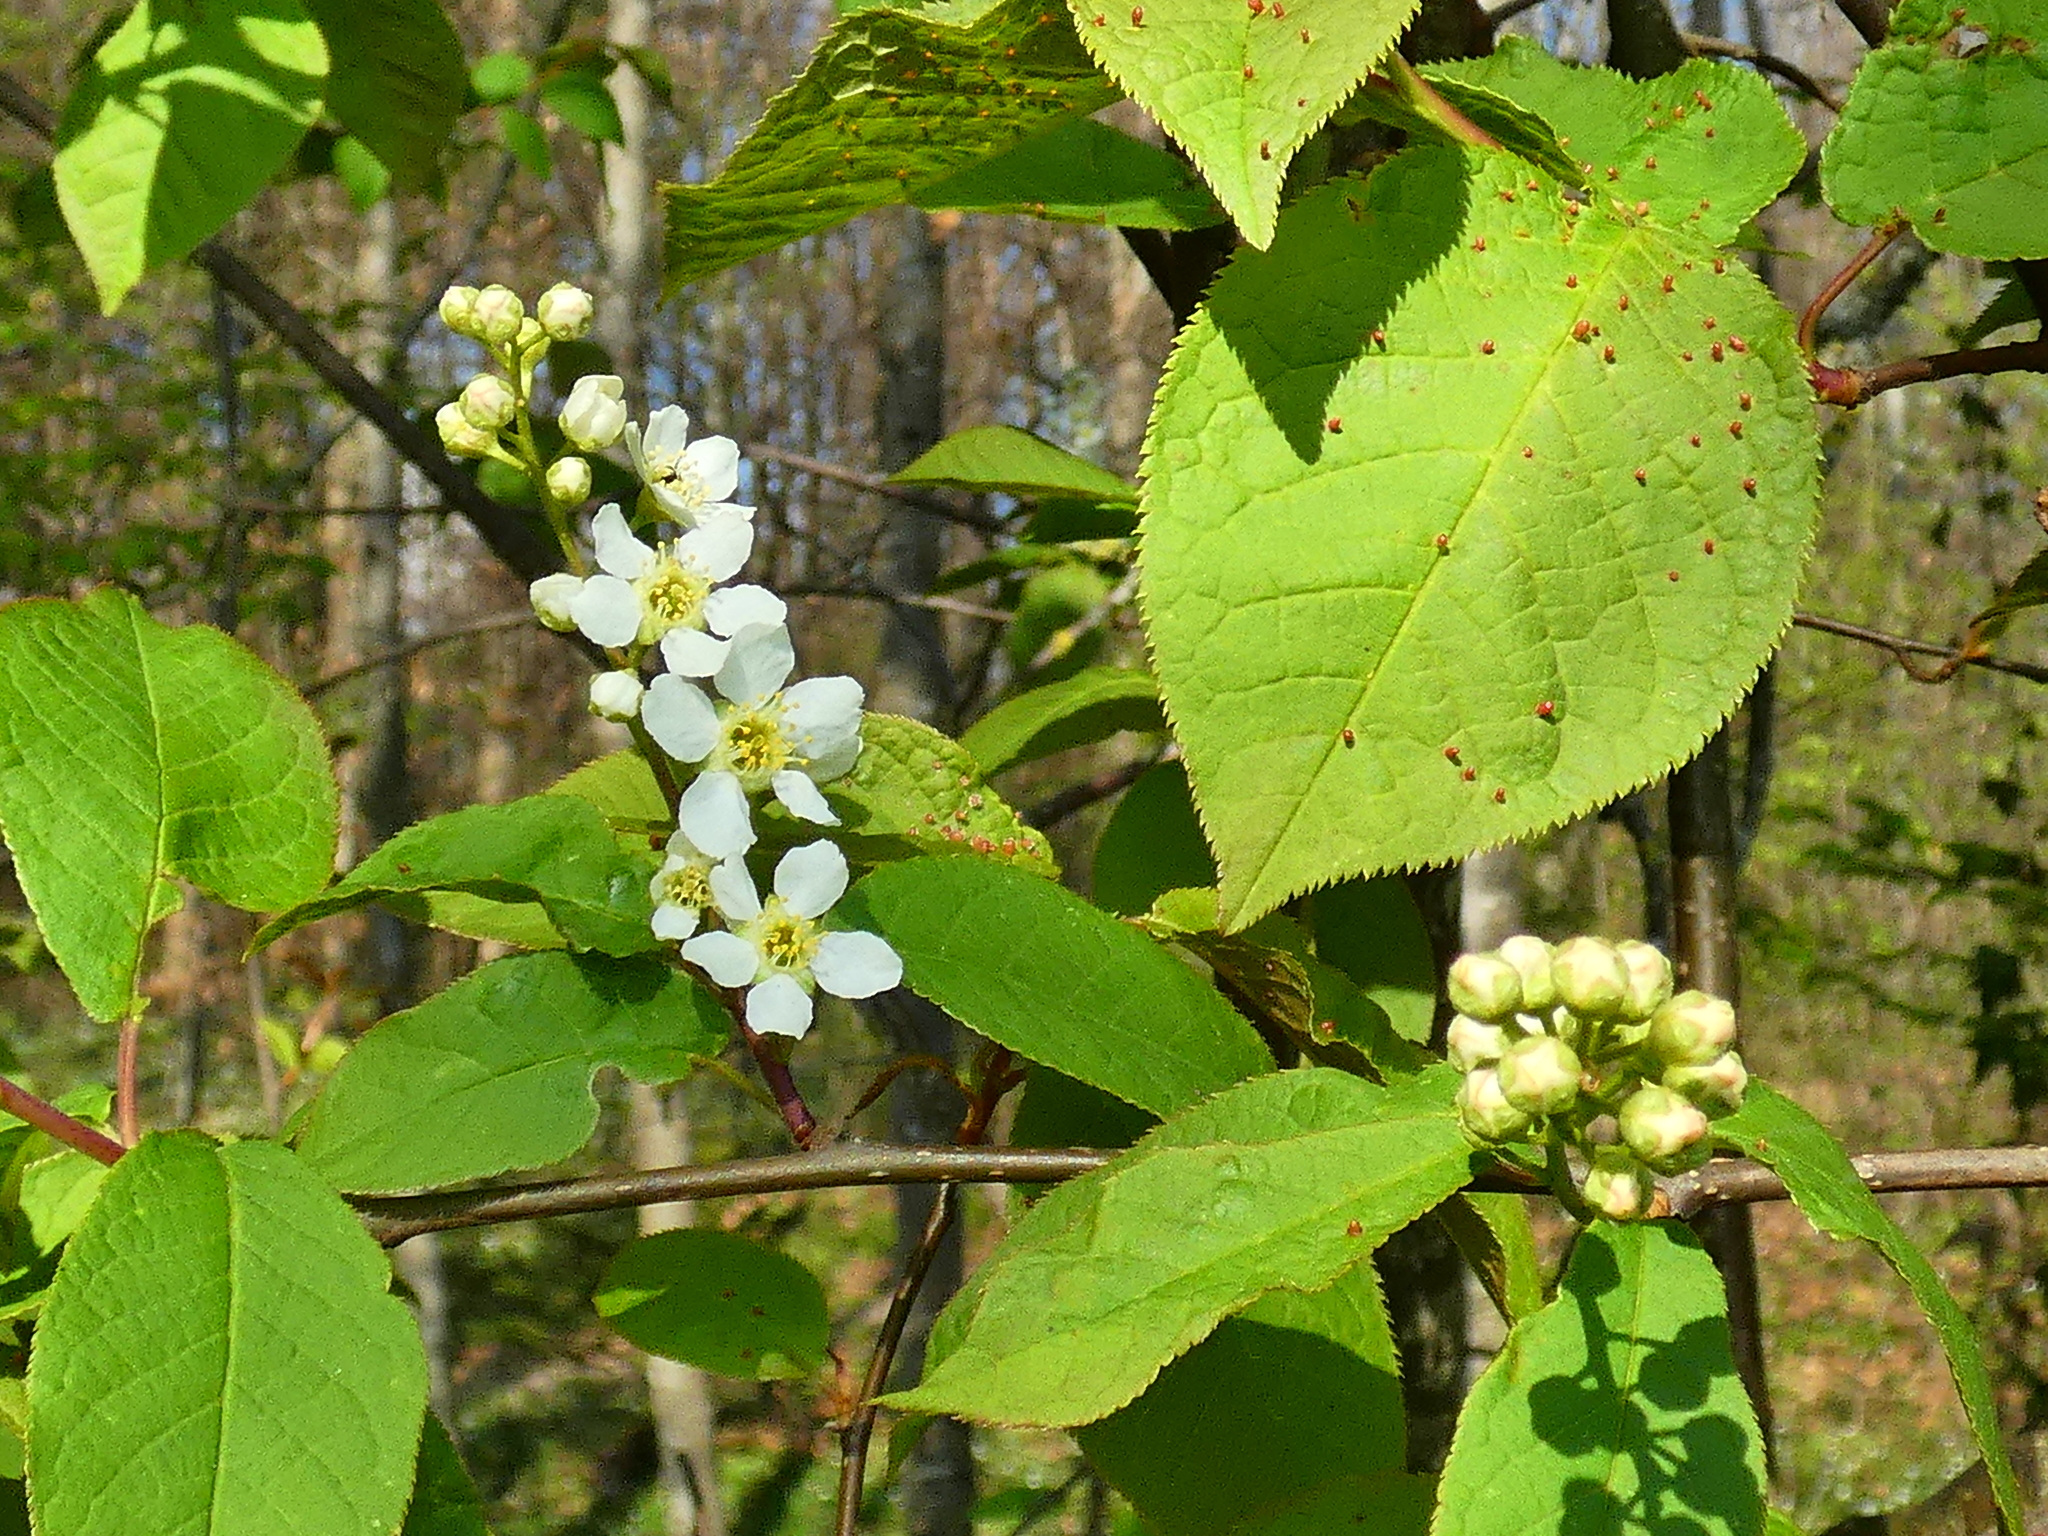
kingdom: Plantae
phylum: Tracheophyta
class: Magnoliopsida
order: Rosales
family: Rosaceae
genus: Prunus
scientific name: Prunus padus
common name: Bird cherry
